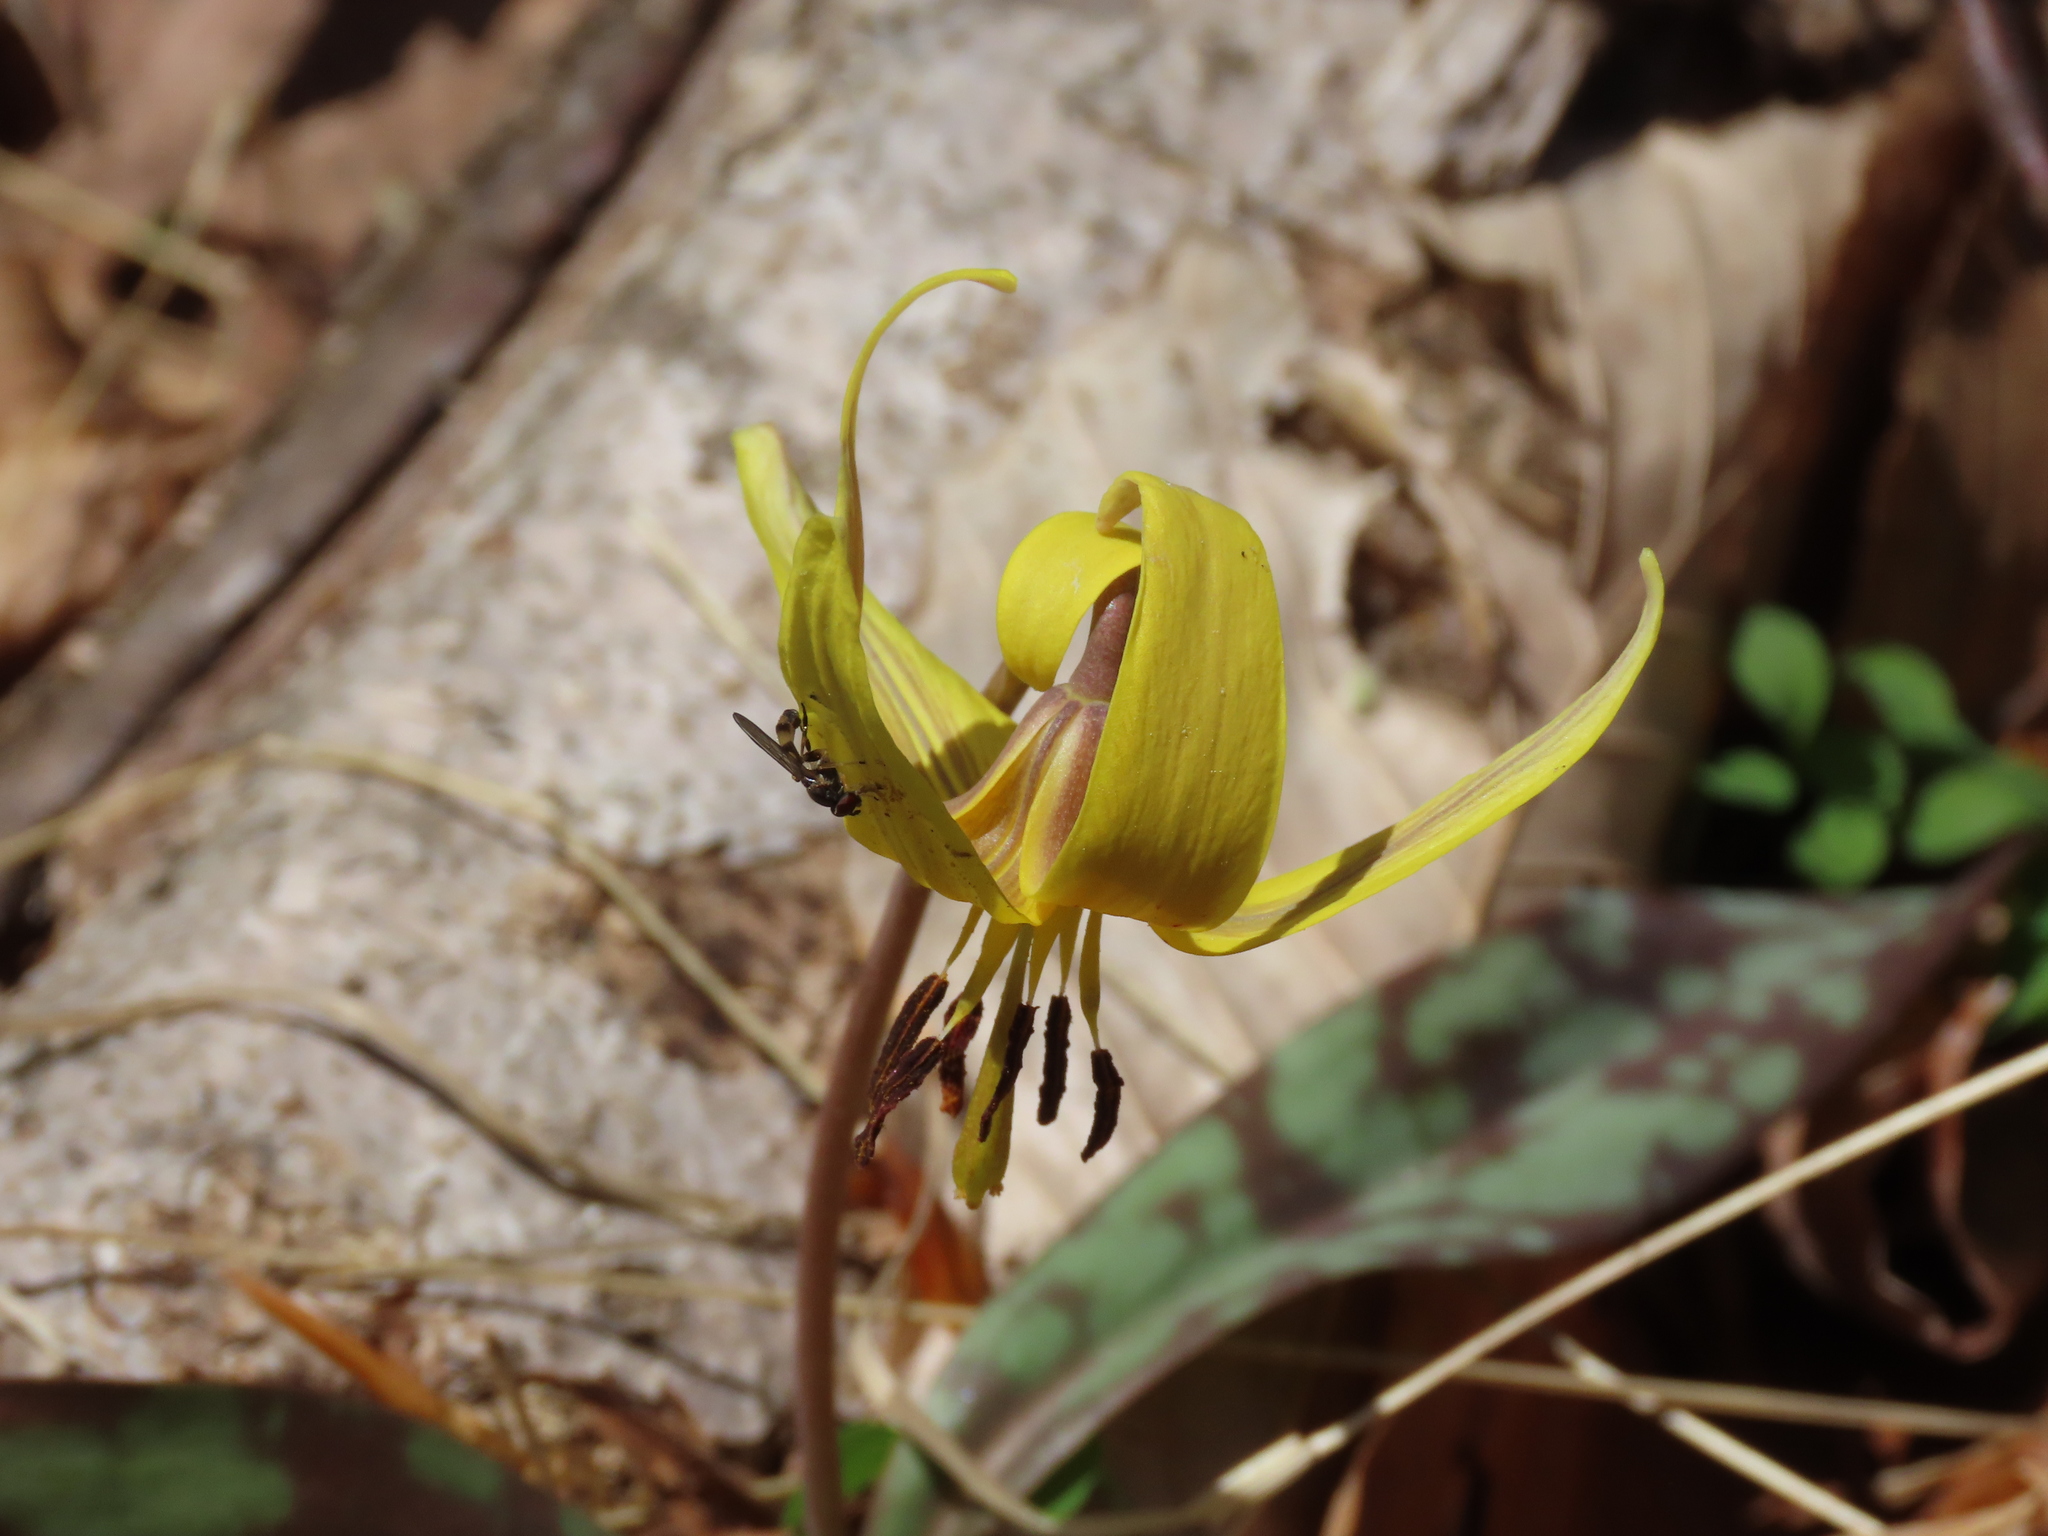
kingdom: Plantae
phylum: Tracheophyta
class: Liliopsida
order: Liliales
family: Liliaceae
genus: Erythronium
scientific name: Erythronium americanum
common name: Yellow adder's-tongue
